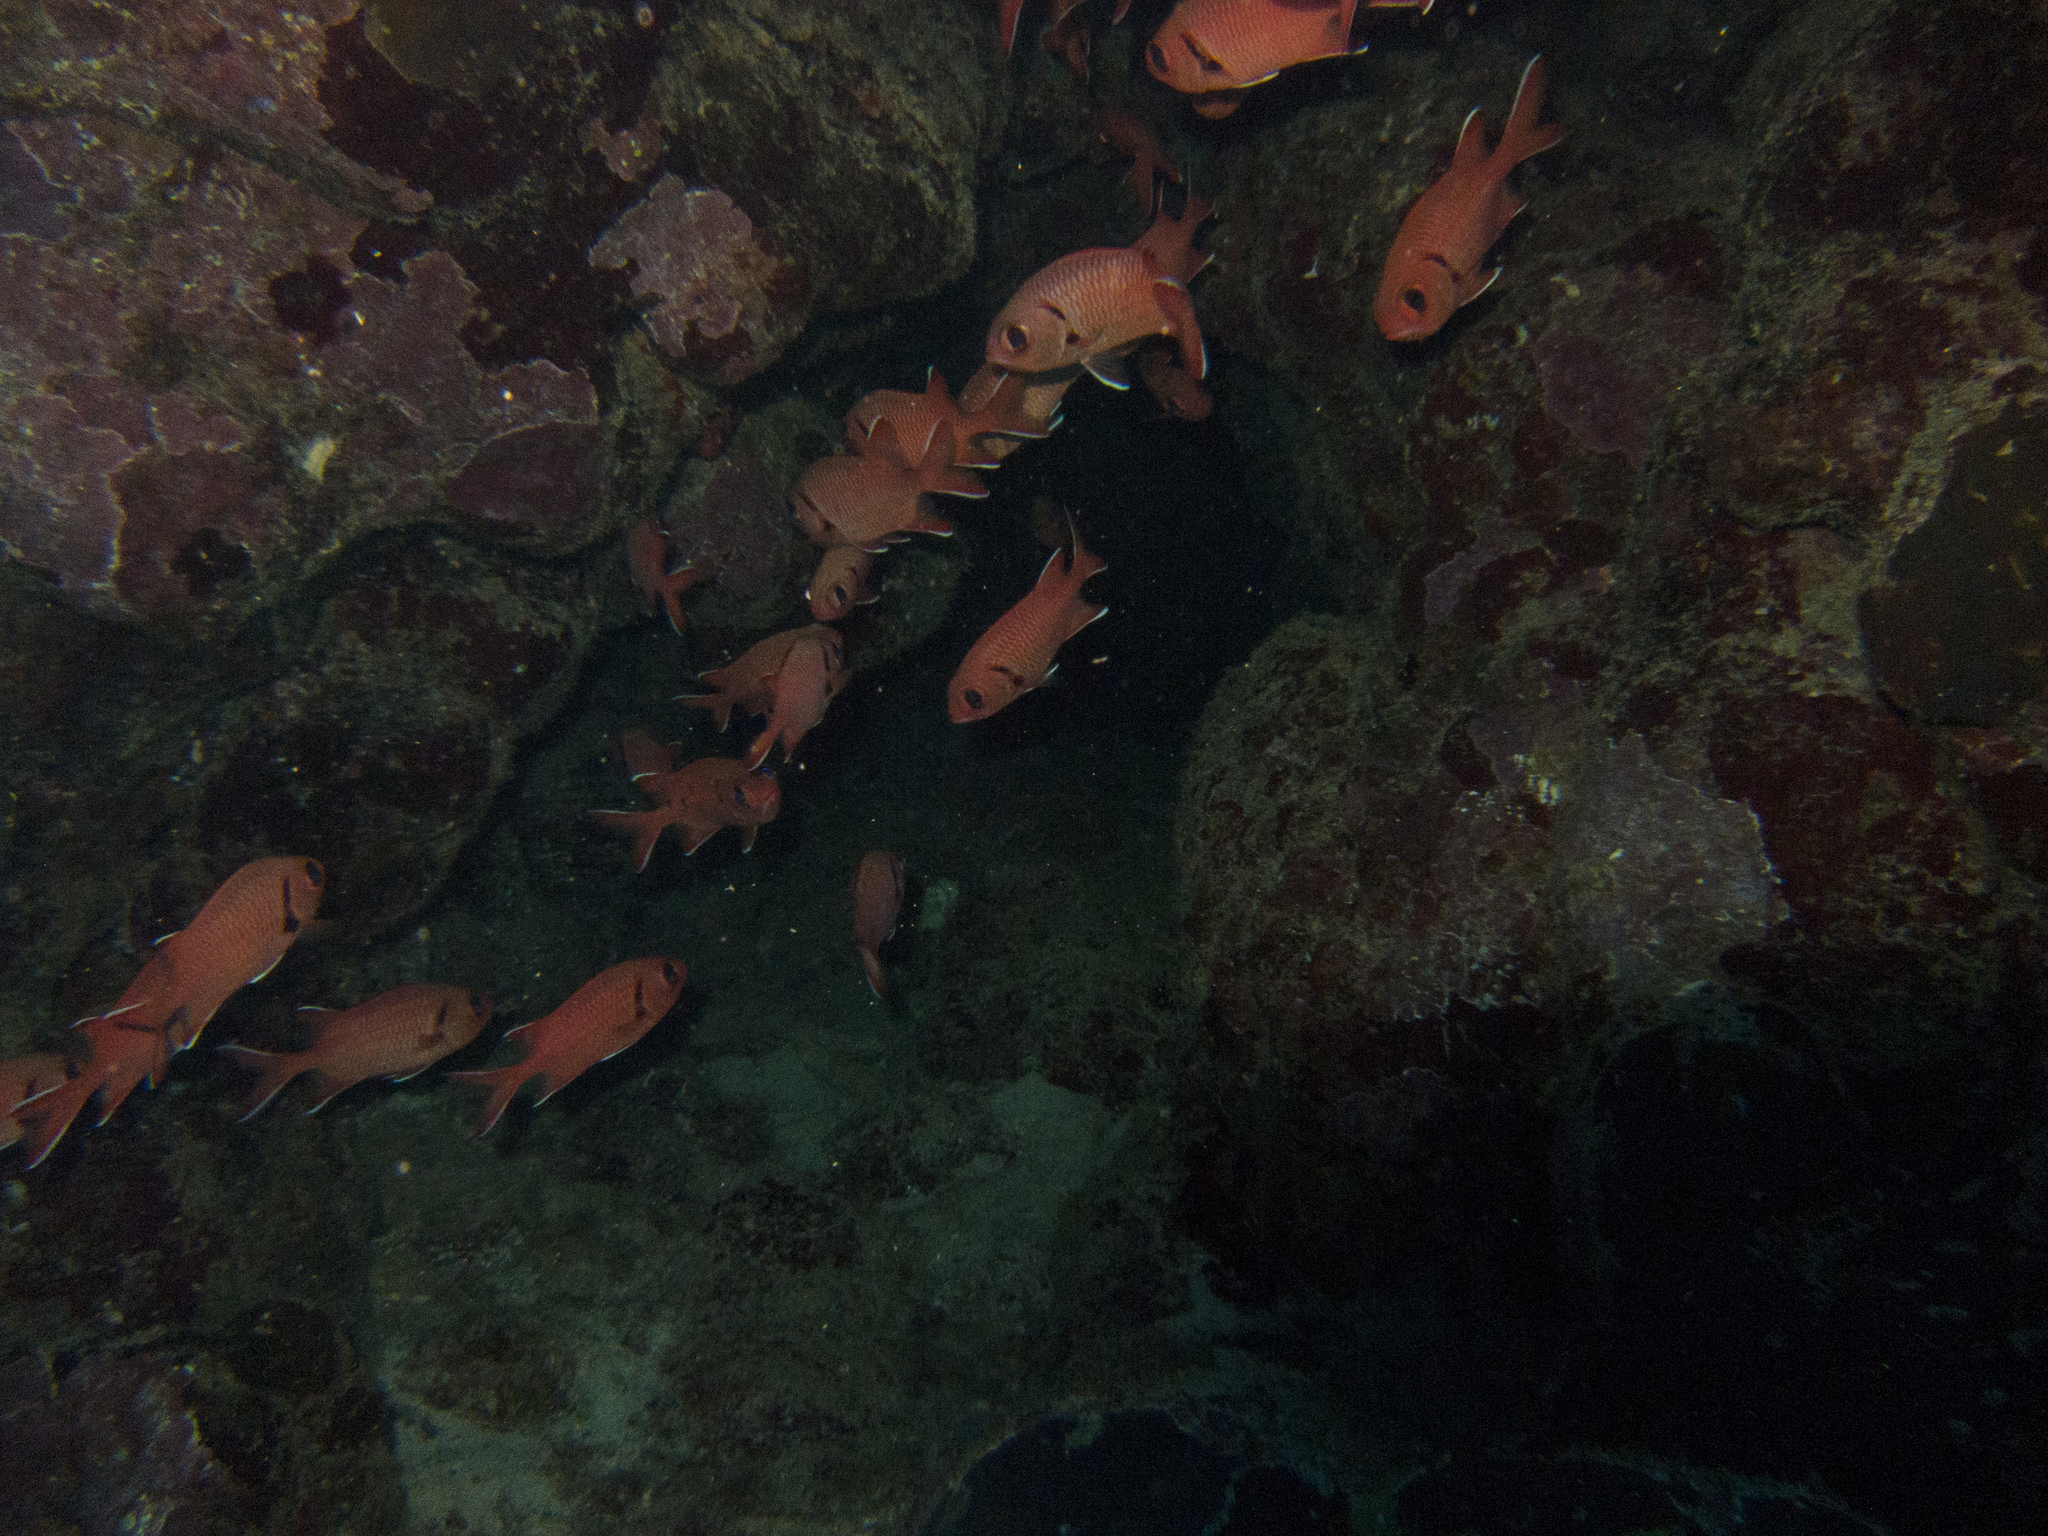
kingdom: Animalia
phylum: Chordata
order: Beryciformes
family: Holocentridae
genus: Myripristis
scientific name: Myripristis murdjan
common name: Big-eye soldierfish
